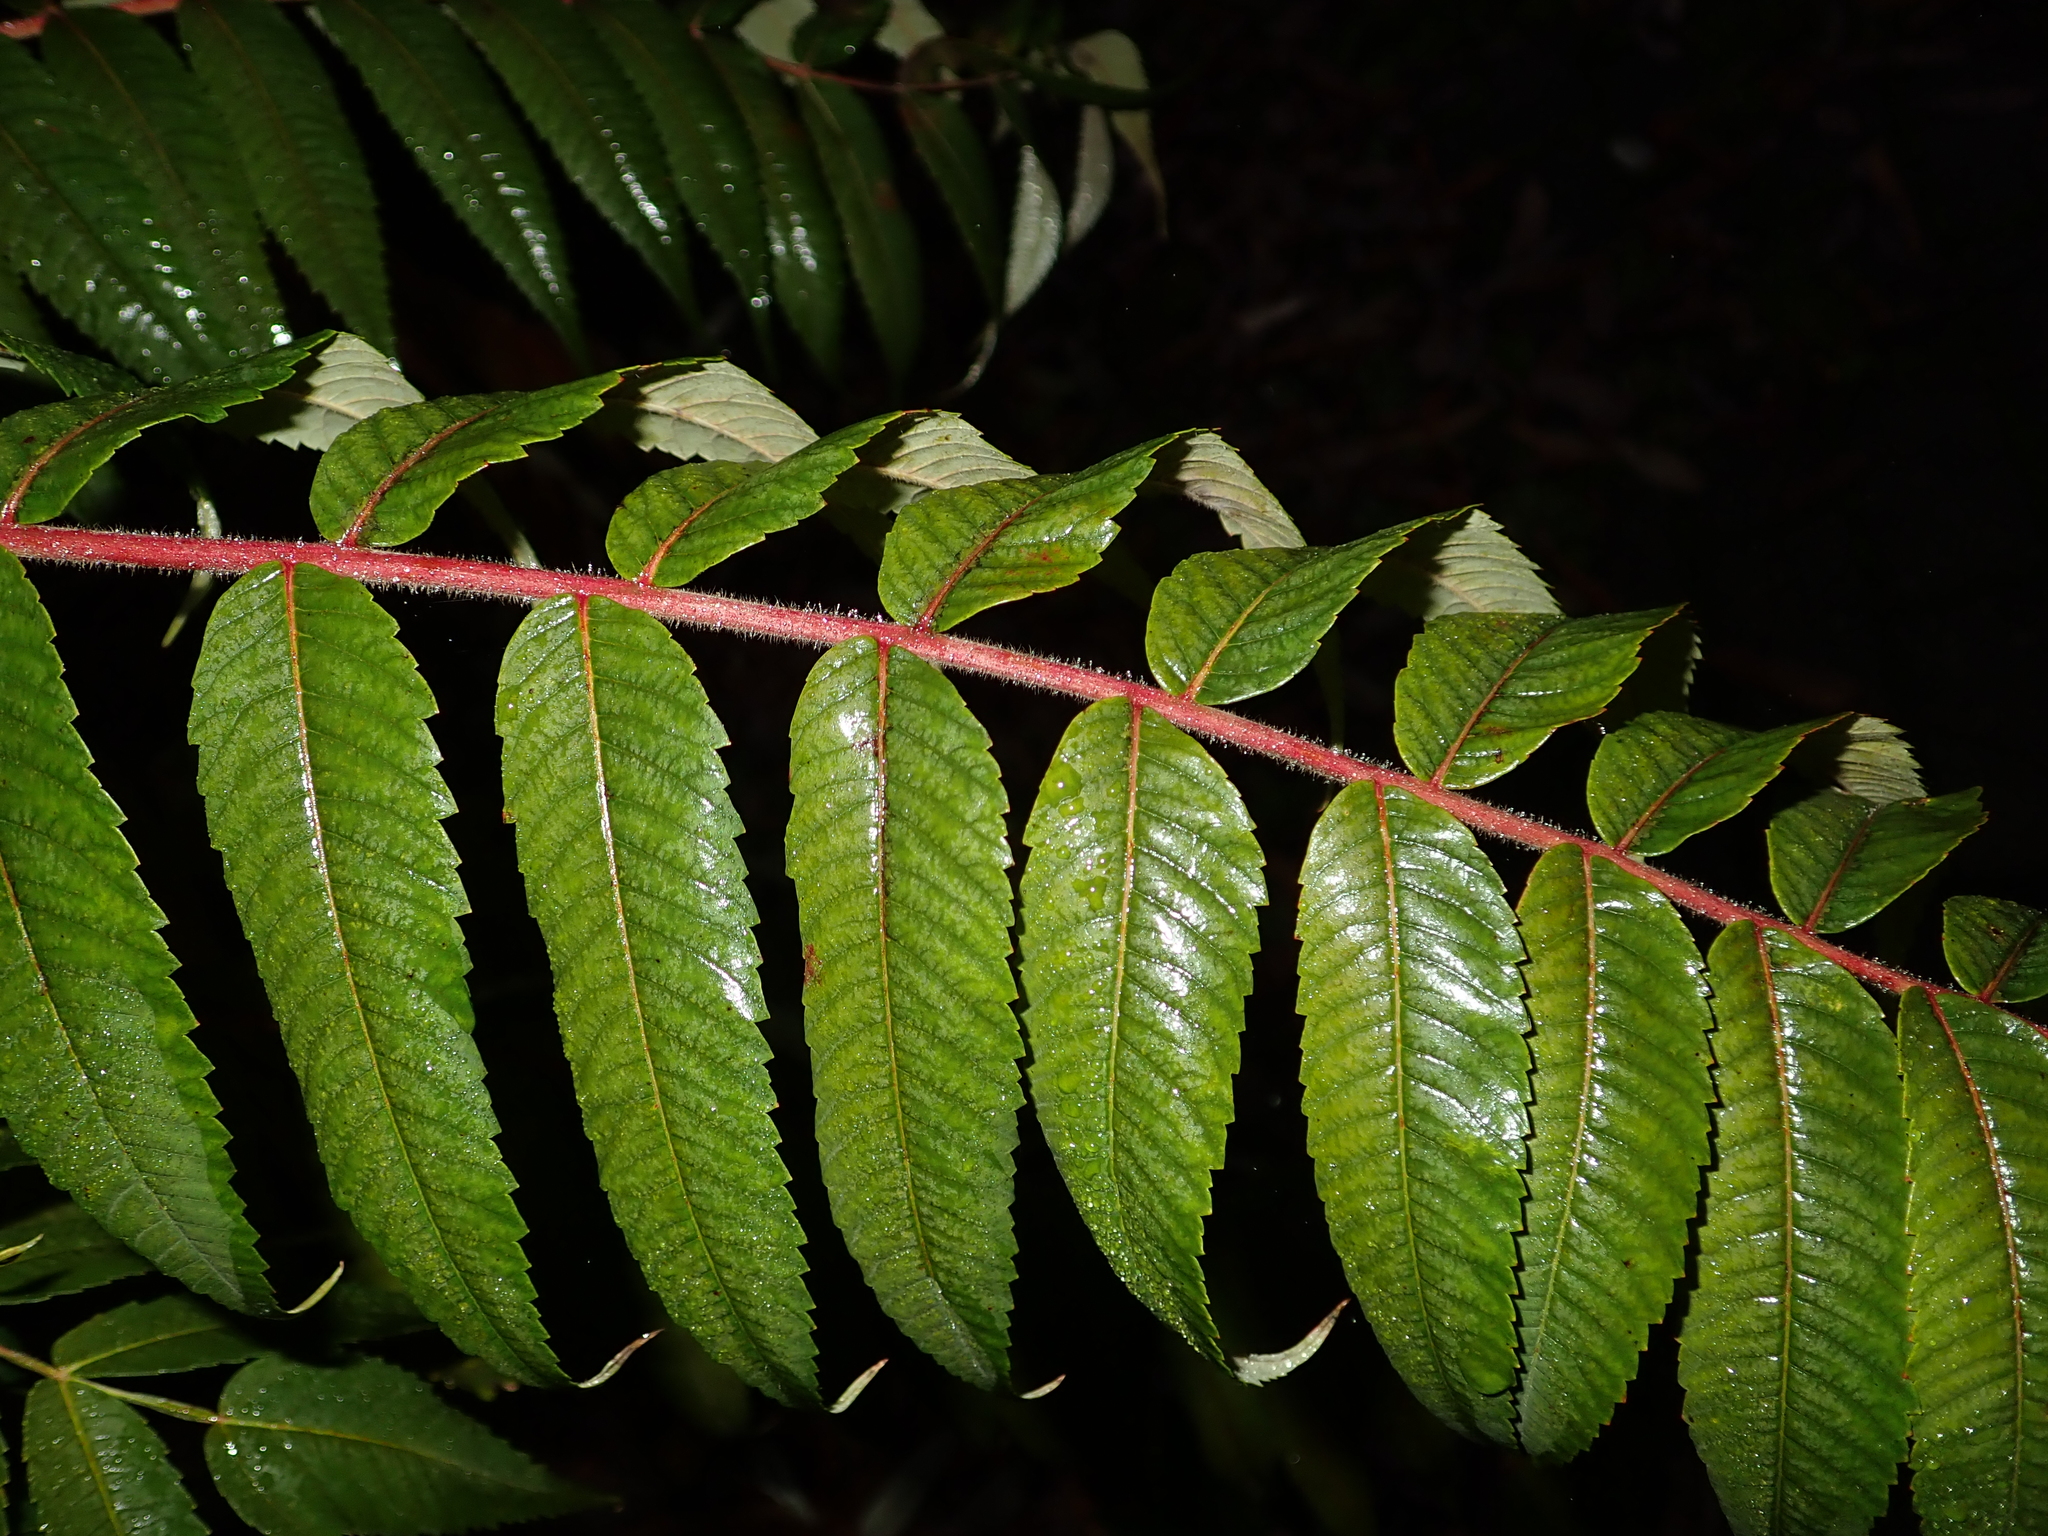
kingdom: Plantae
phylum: Tracheophyta
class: Magnoliopsida
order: Sapindales
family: Anacardiaceae
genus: Rhus
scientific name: Rhus typhina
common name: Staghorn sumac
